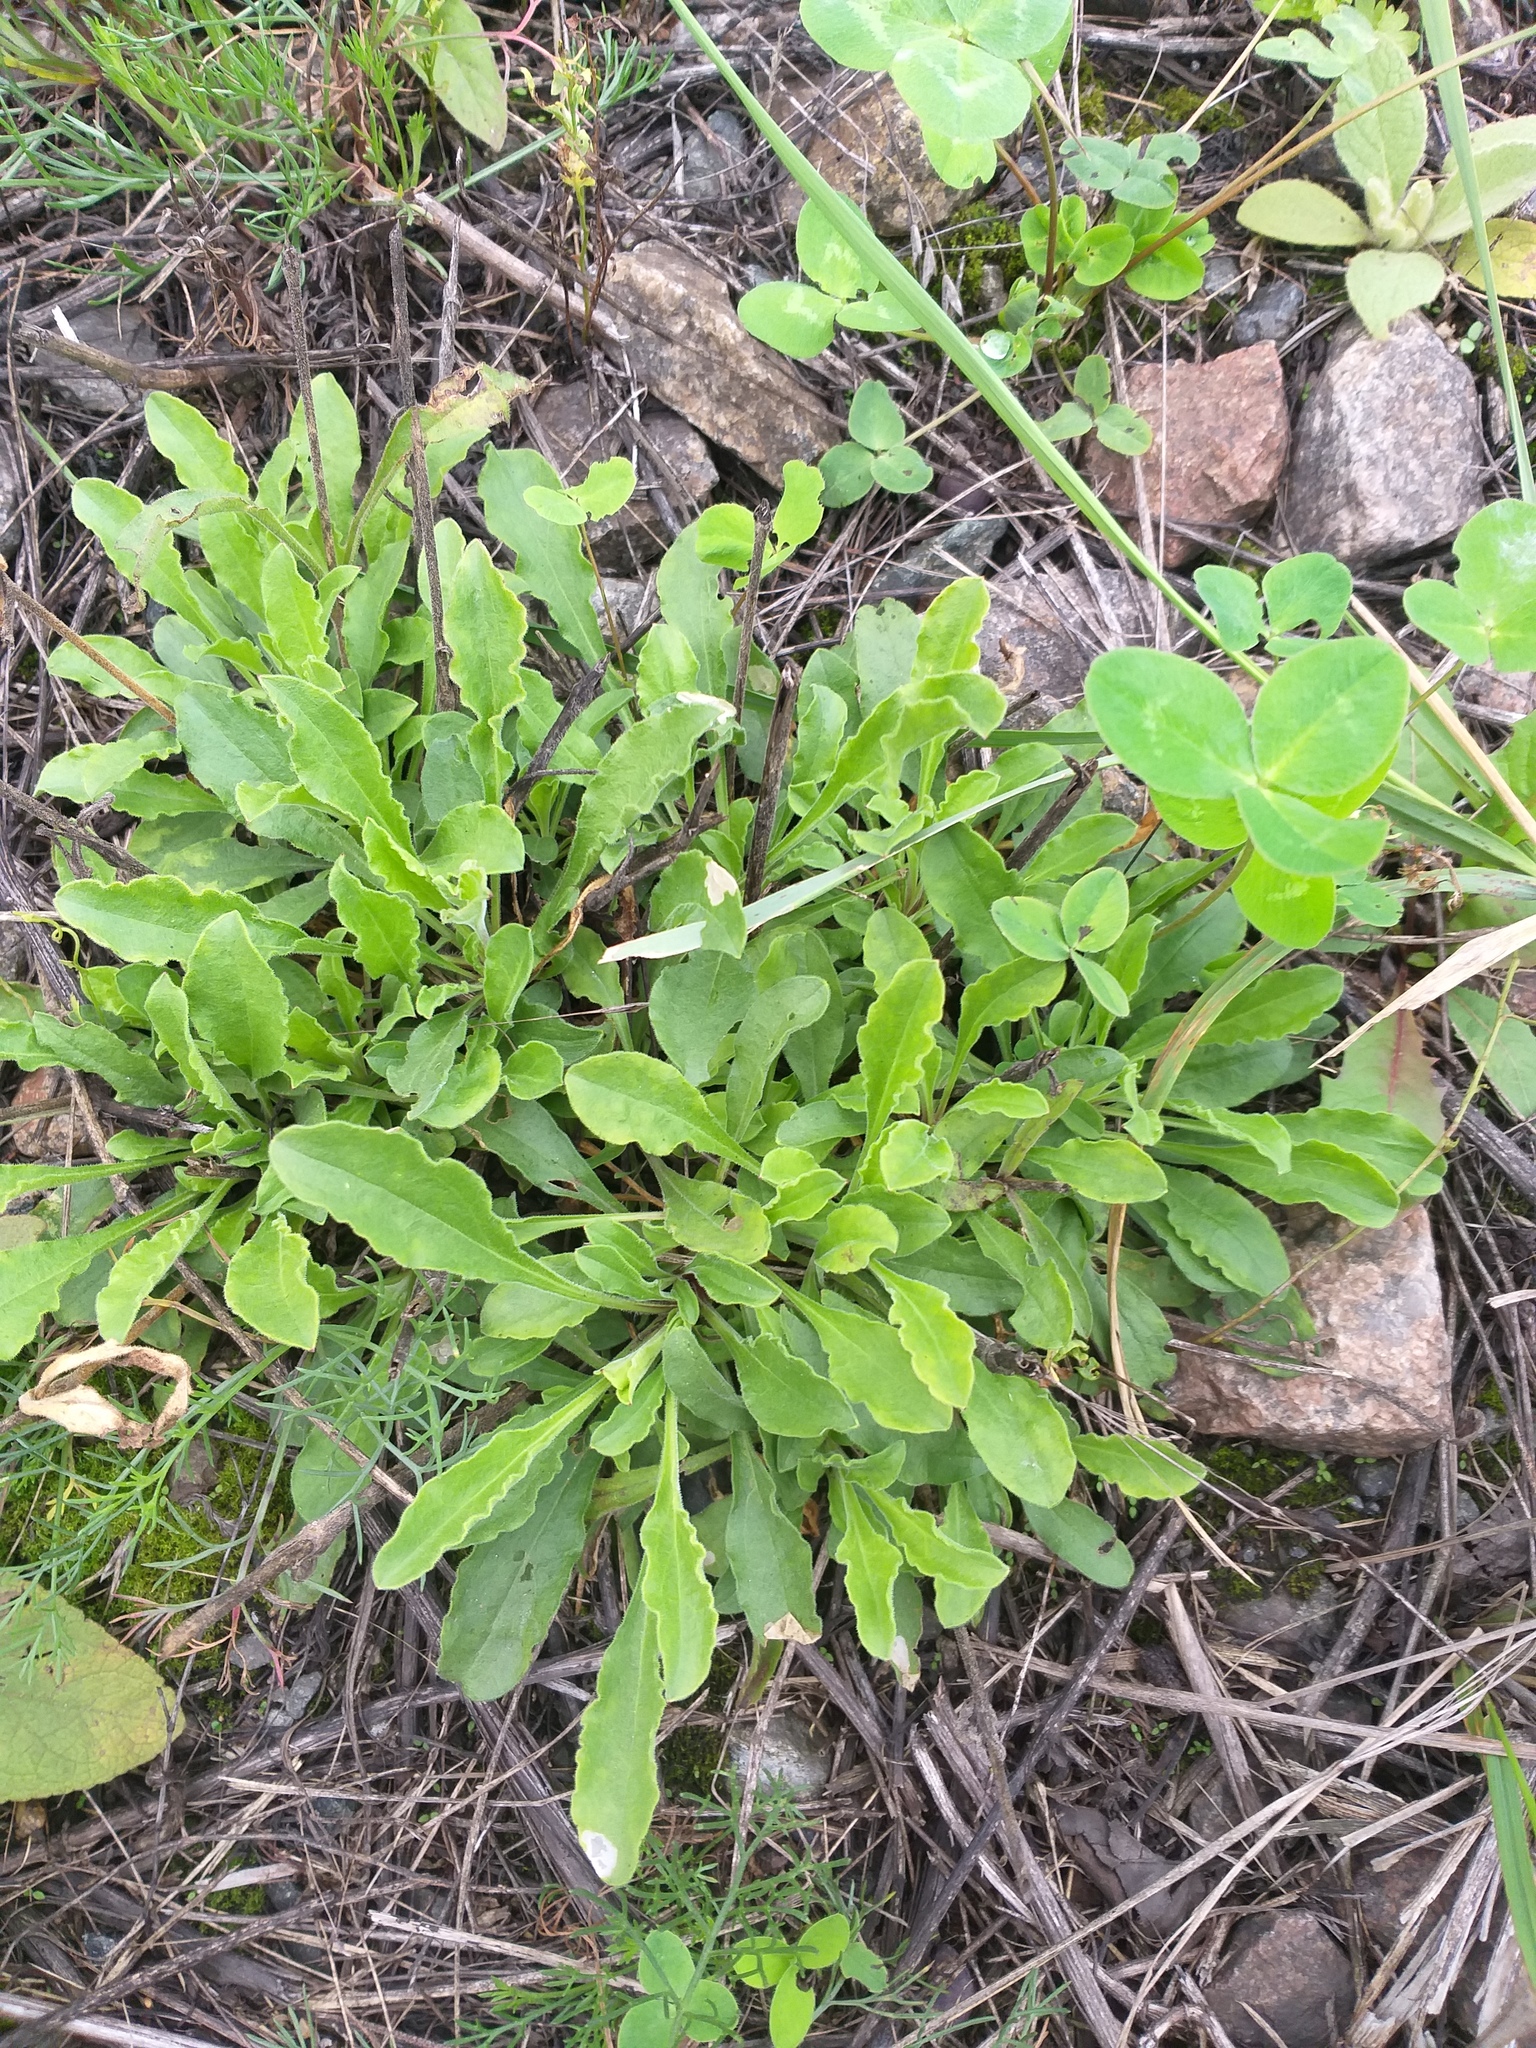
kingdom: Plantae
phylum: Tracheophyta
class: Magnoliopsida
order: Caryophyllales
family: Caryophyllaceae
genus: Silene
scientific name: Silene nutans
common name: Nottingham catchfly
